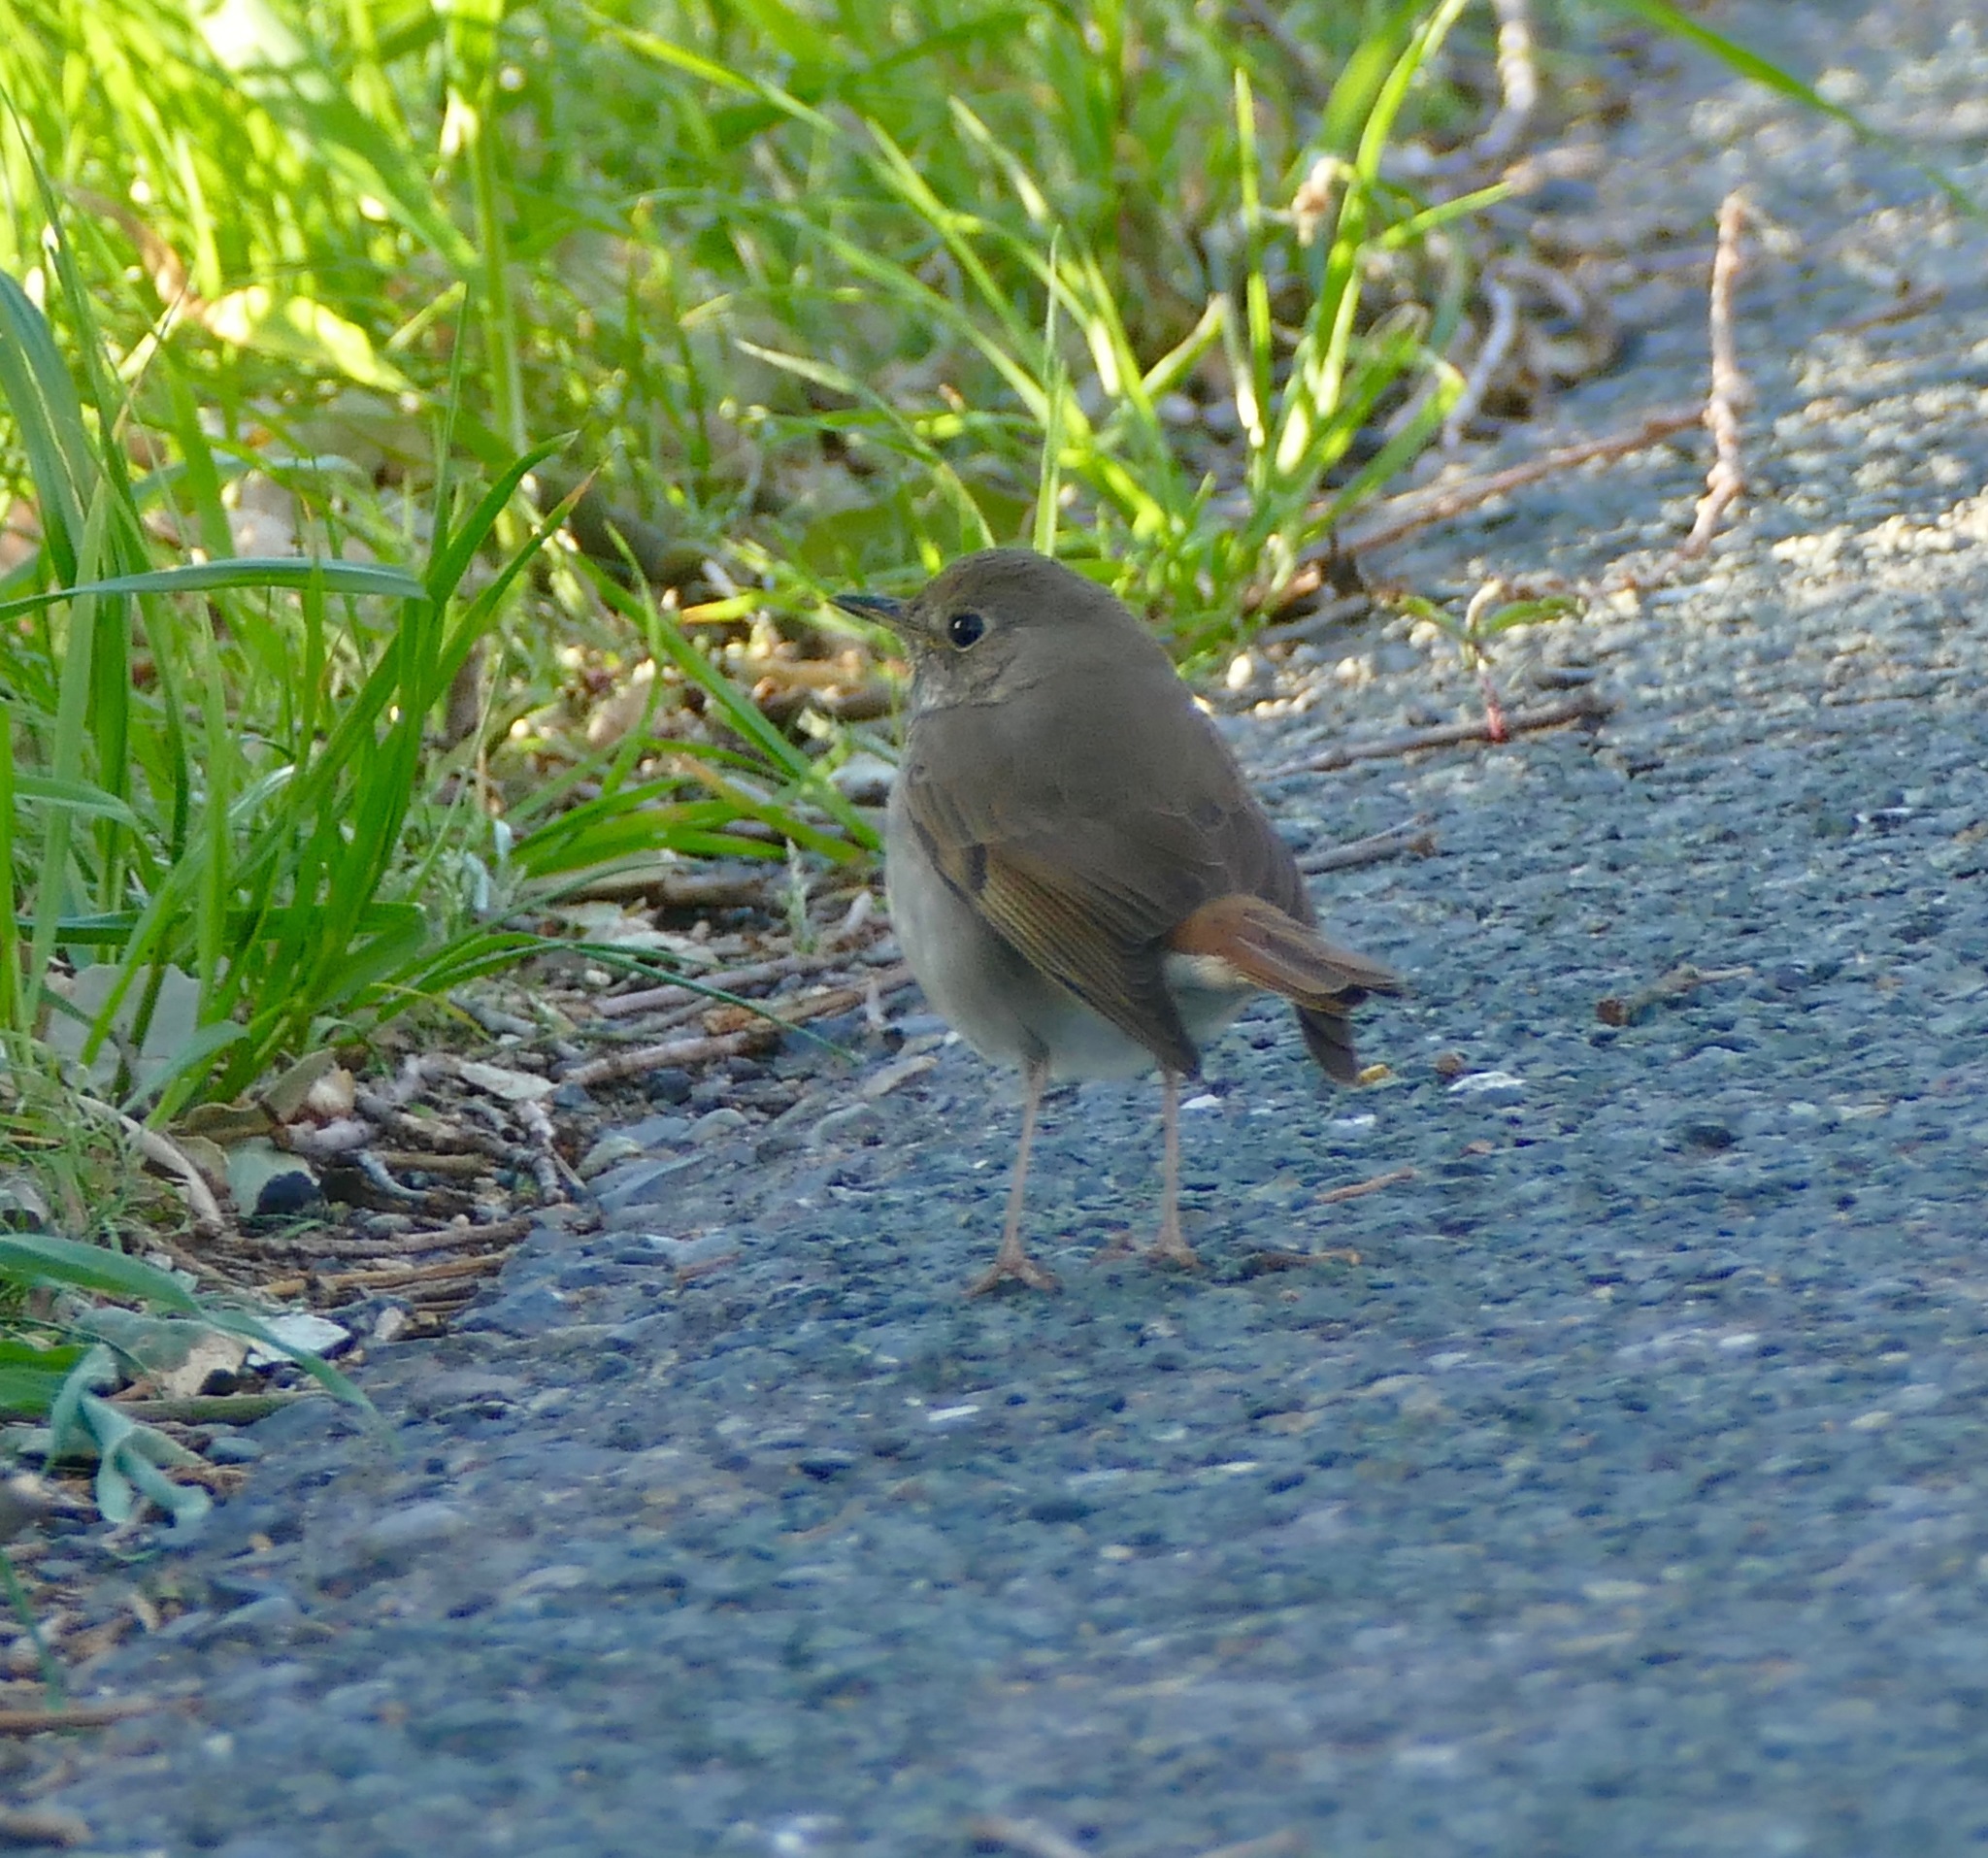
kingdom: Animalia
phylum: Chordata
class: Aves
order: Passeriformes
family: Turdidae
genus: Catharus
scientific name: Catharus guttatus
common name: Hermit thrush
